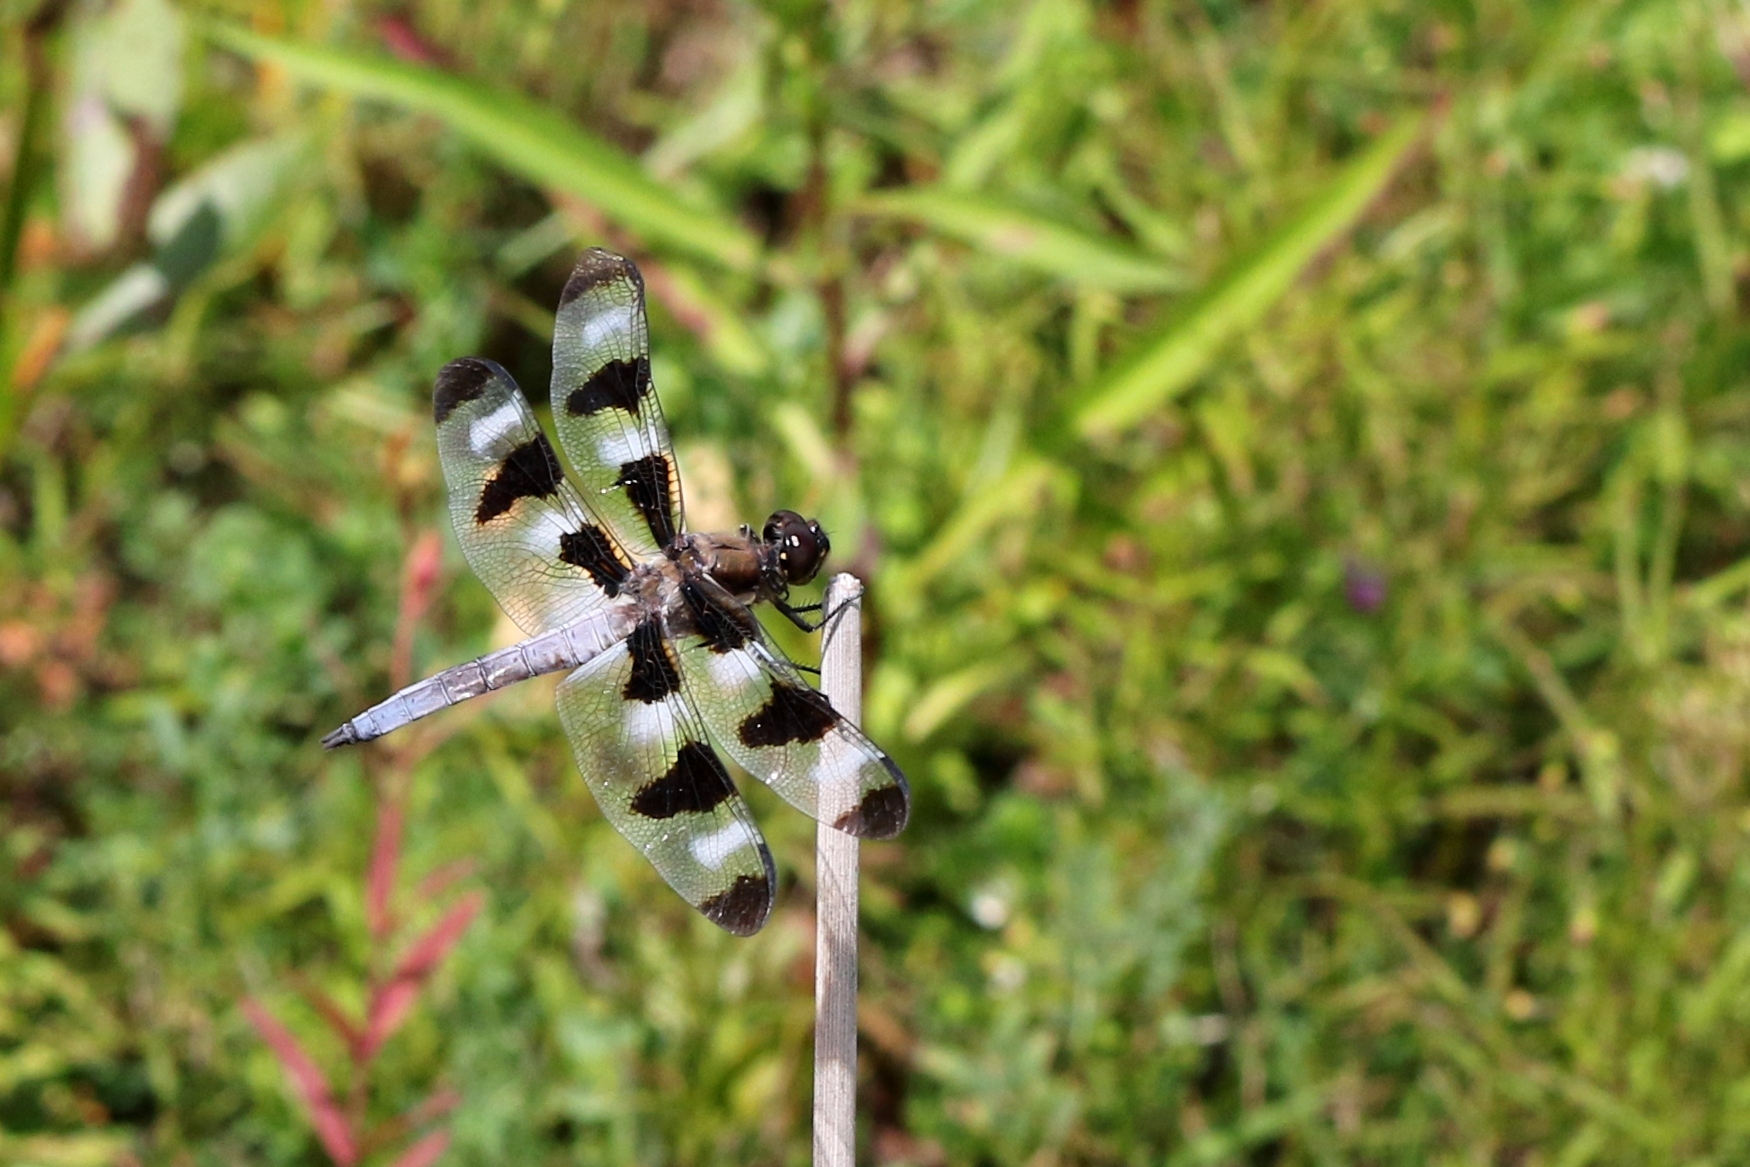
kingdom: Animalia
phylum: Arthropoda
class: Insecta
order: Odonata
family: Libellulidae
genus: Libellula
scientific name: Libellula pulchella
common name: Twelve-spotted skimmer
